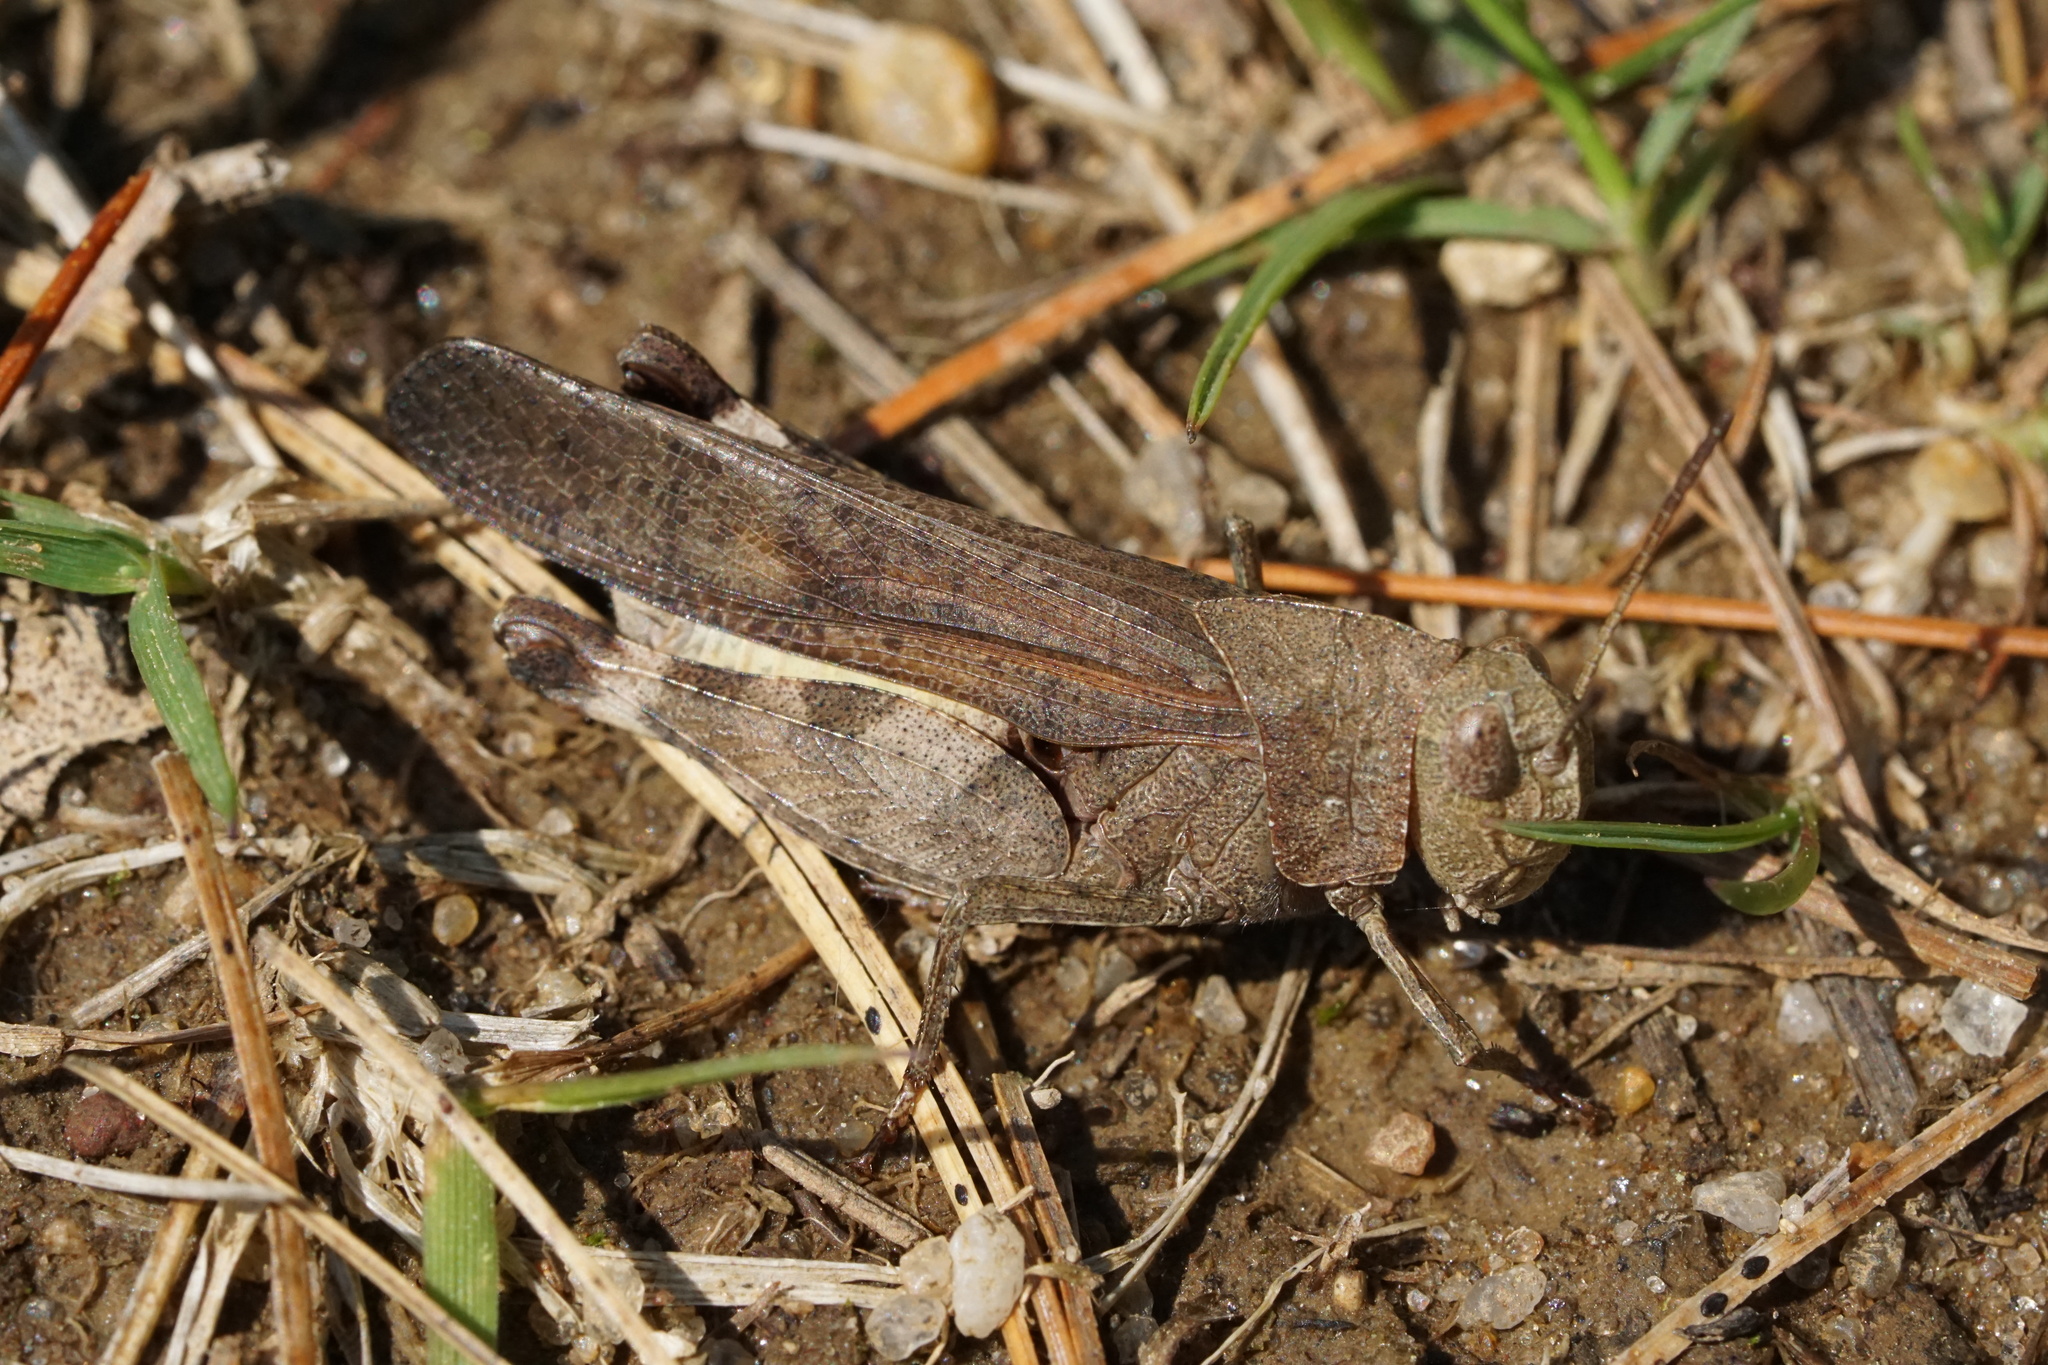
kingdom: Animalia
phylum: Arthropoda
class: Insecta
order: Orthoptera
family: Acrididae
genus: Arphia
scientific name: Arphia sulphurea
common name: Spring yellow-winged locust
